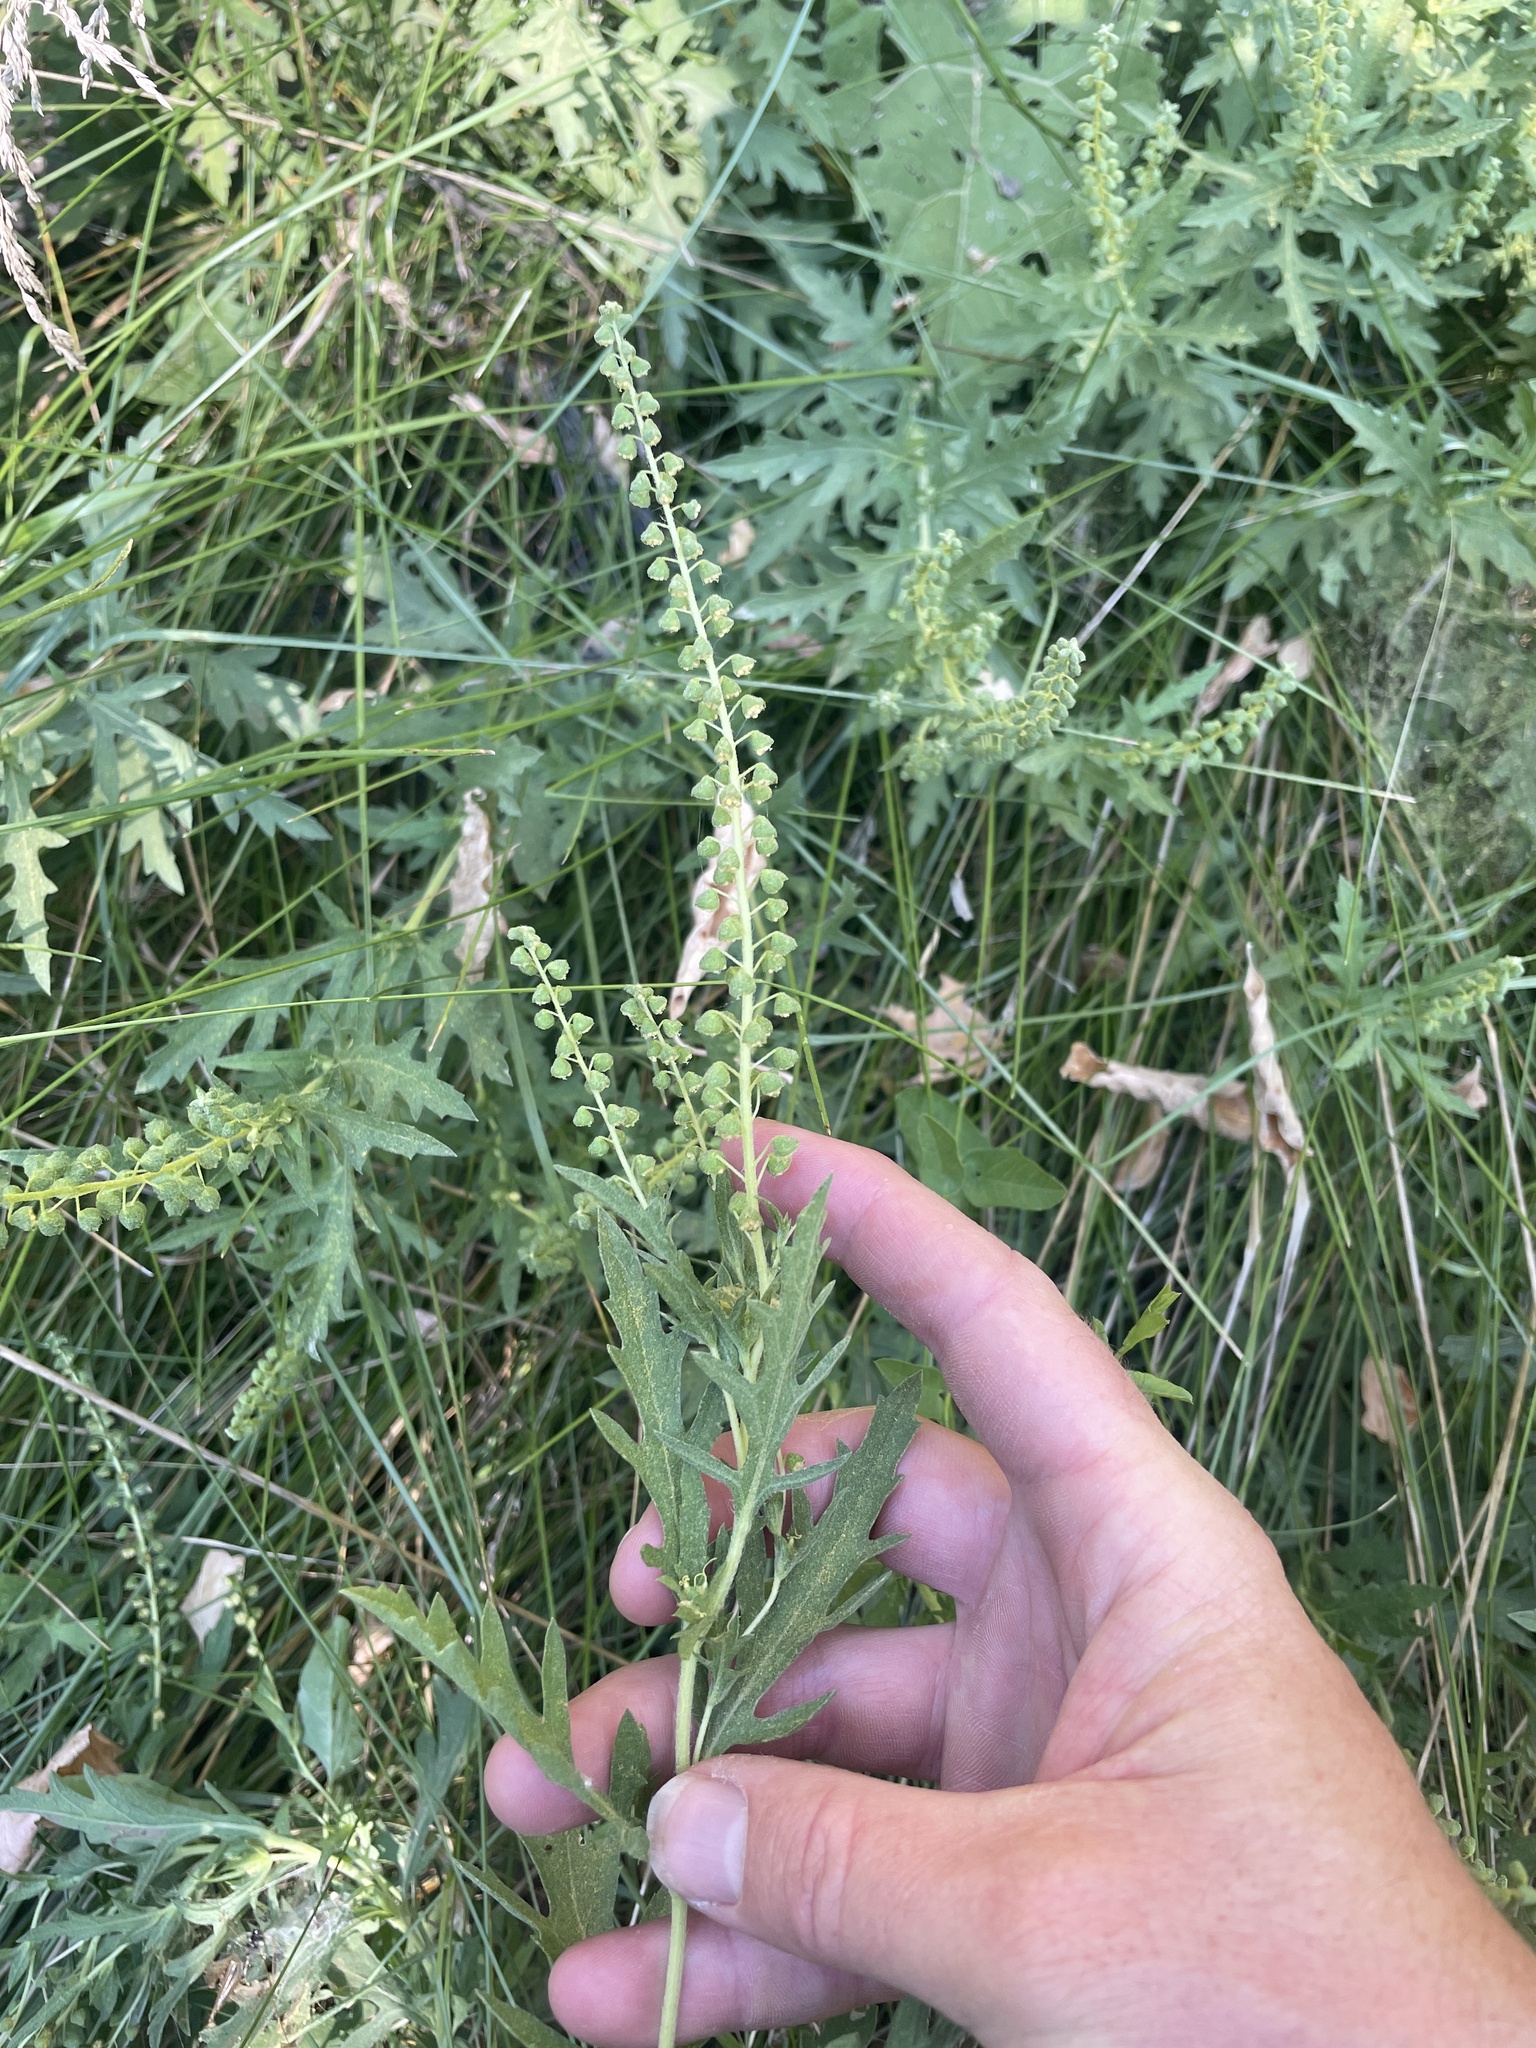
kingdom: Plantae
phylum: Tracheophyta
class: Magnoliopsida
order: Asterales
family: Asteraceae
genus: Ambrosia
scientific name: Ambrosia psilostachya
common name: Perennial ragweed
